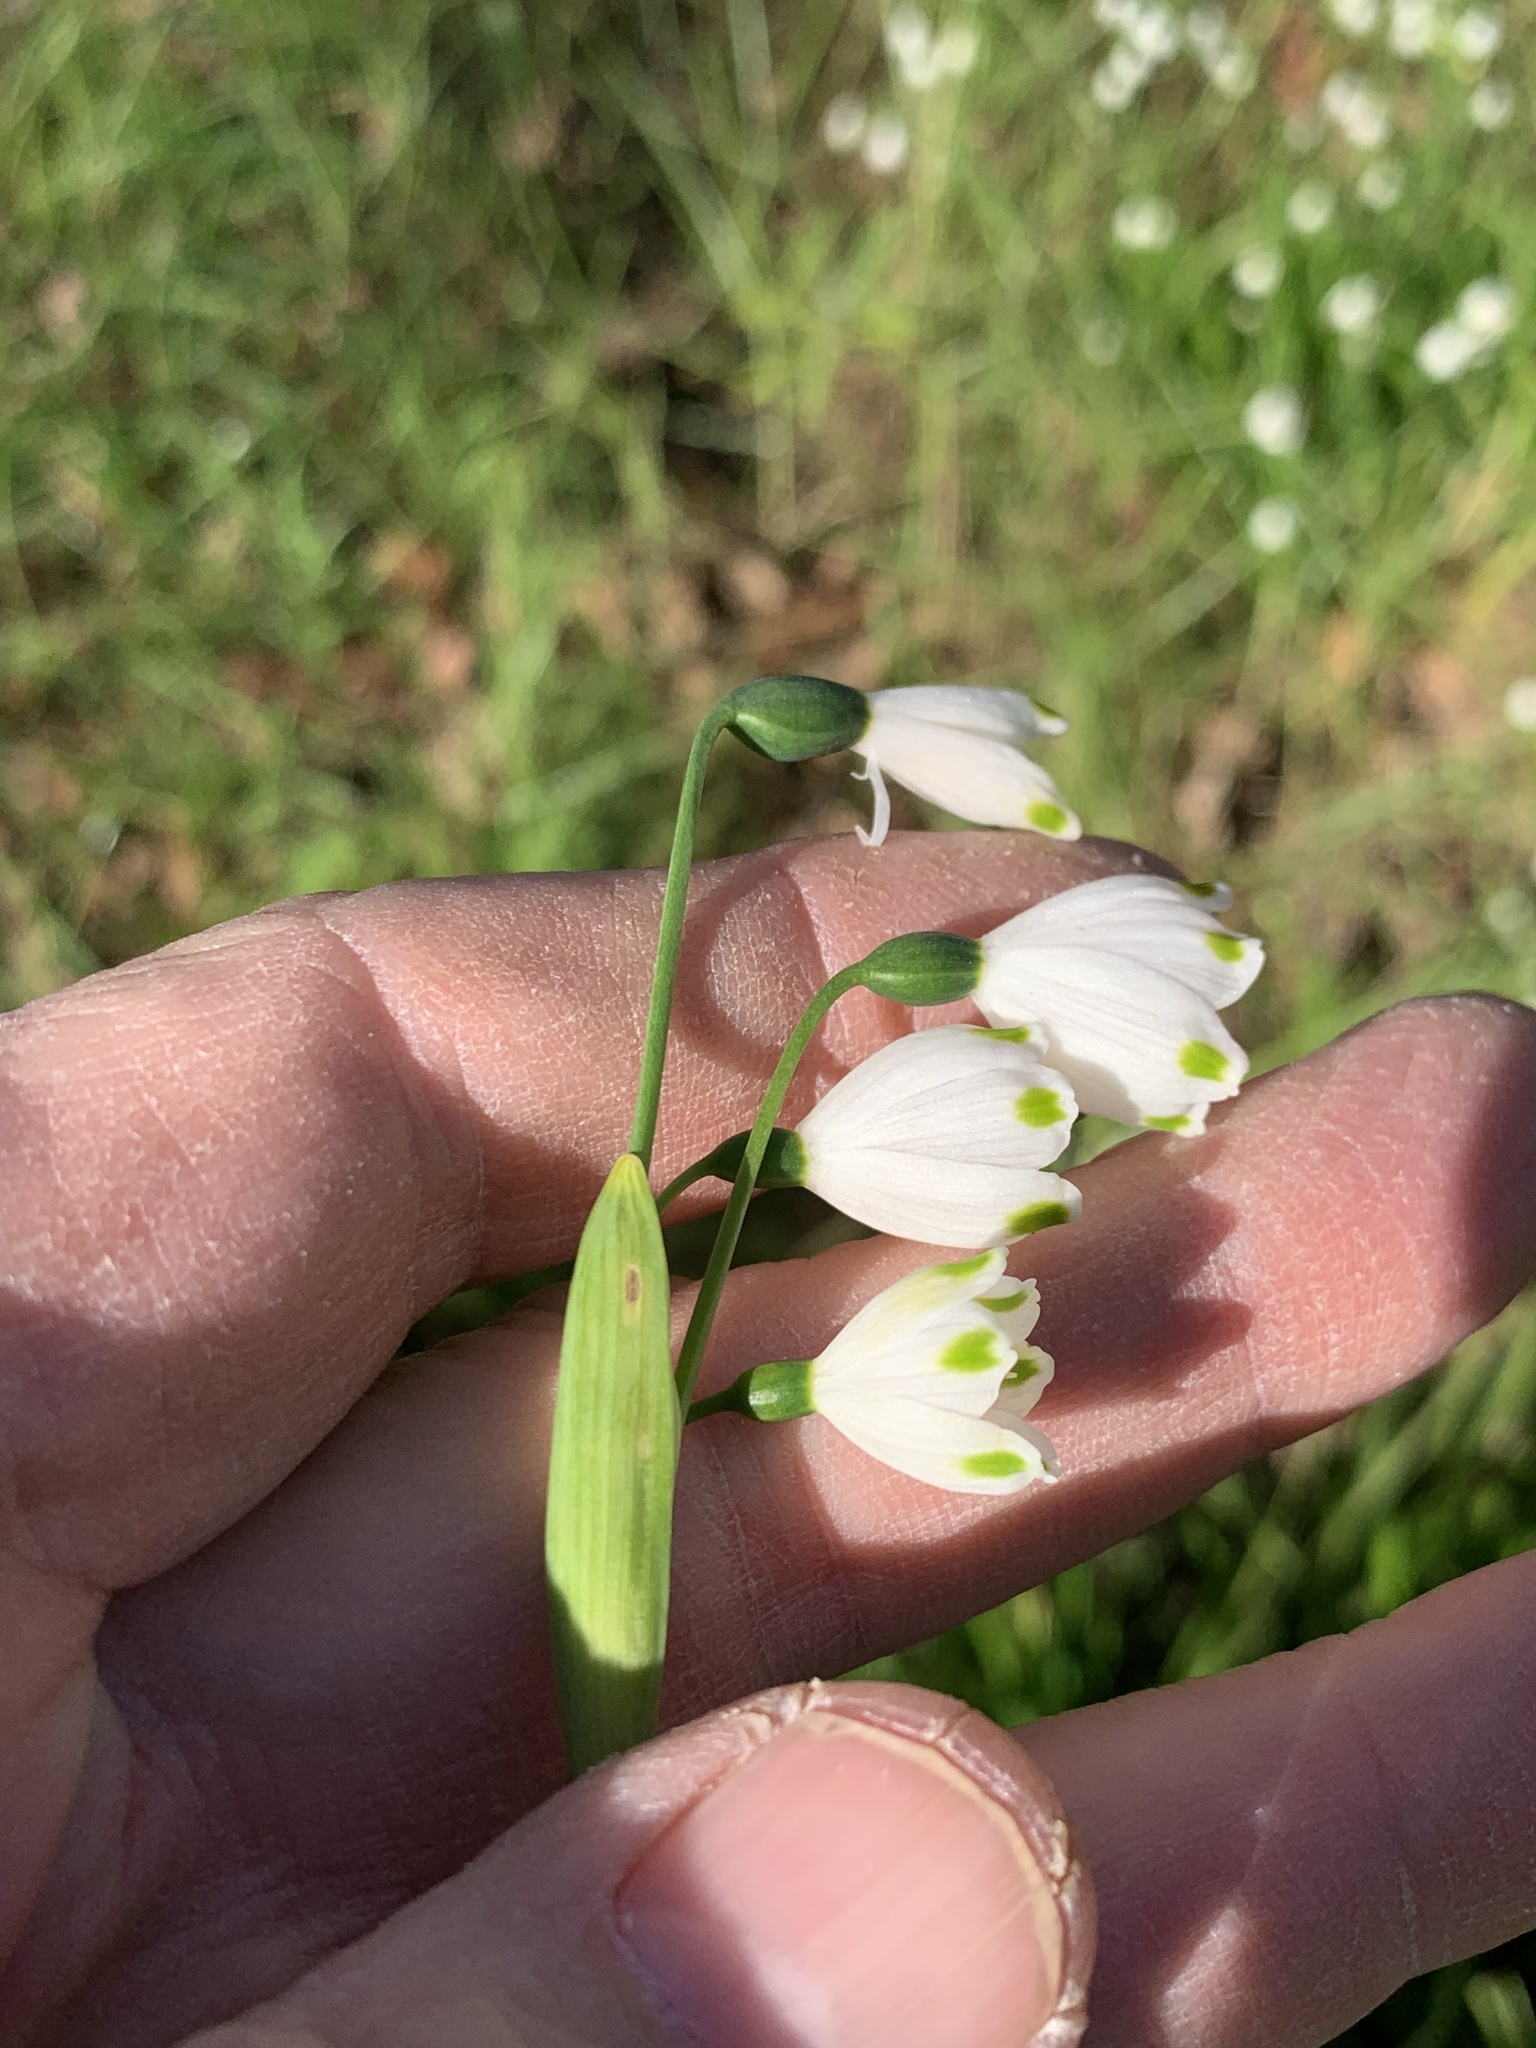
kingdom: Plantae
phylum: Tracheophyta
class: Liliopsida
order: Asparagales
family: Amaryllidaceae
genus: Leucojum
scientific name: Leucojum aestivum
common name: Summer snowflake
